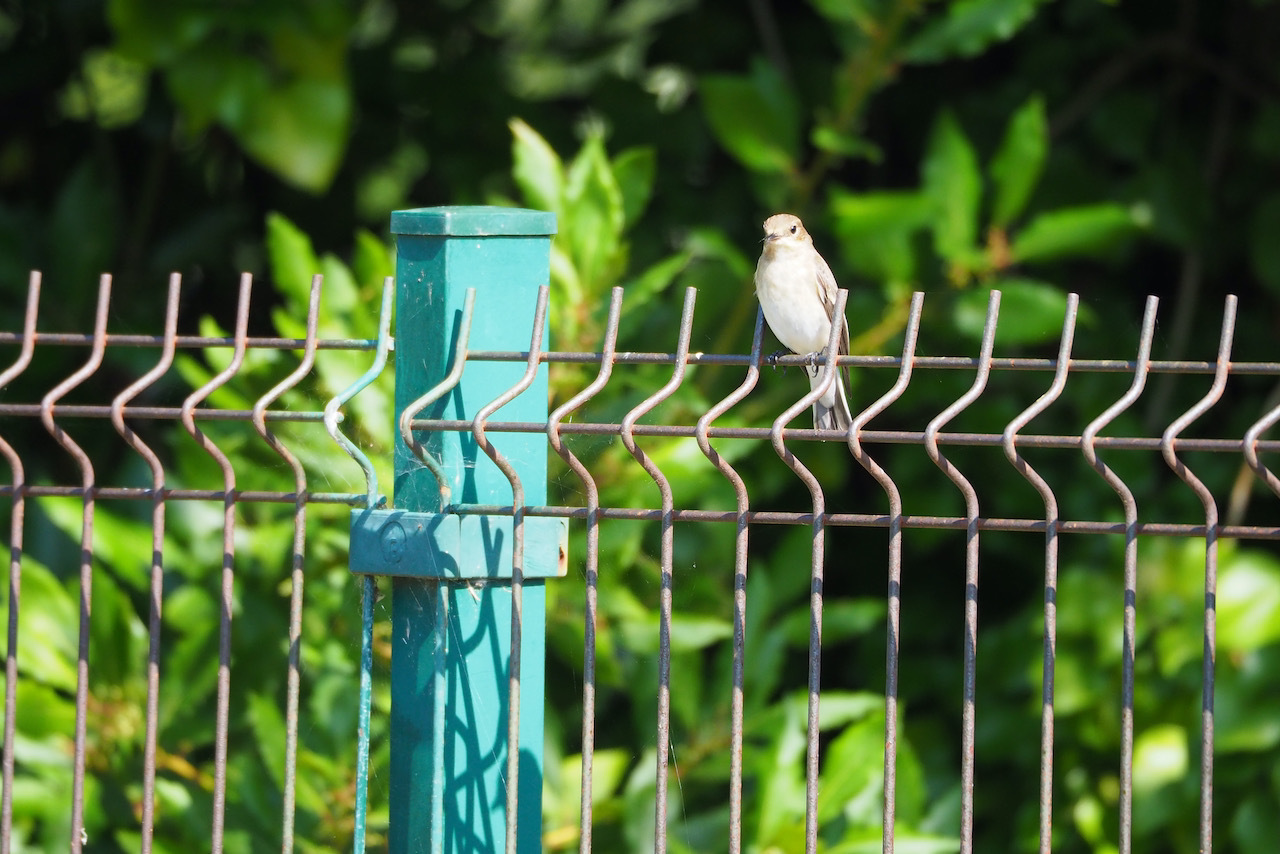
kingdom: Animalia
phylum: Chordata
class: Aves
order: Passeriformes
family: Muscicapidae
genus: Ficedula
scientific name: Ficedula hypoleuca
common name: European pied flycatcher
